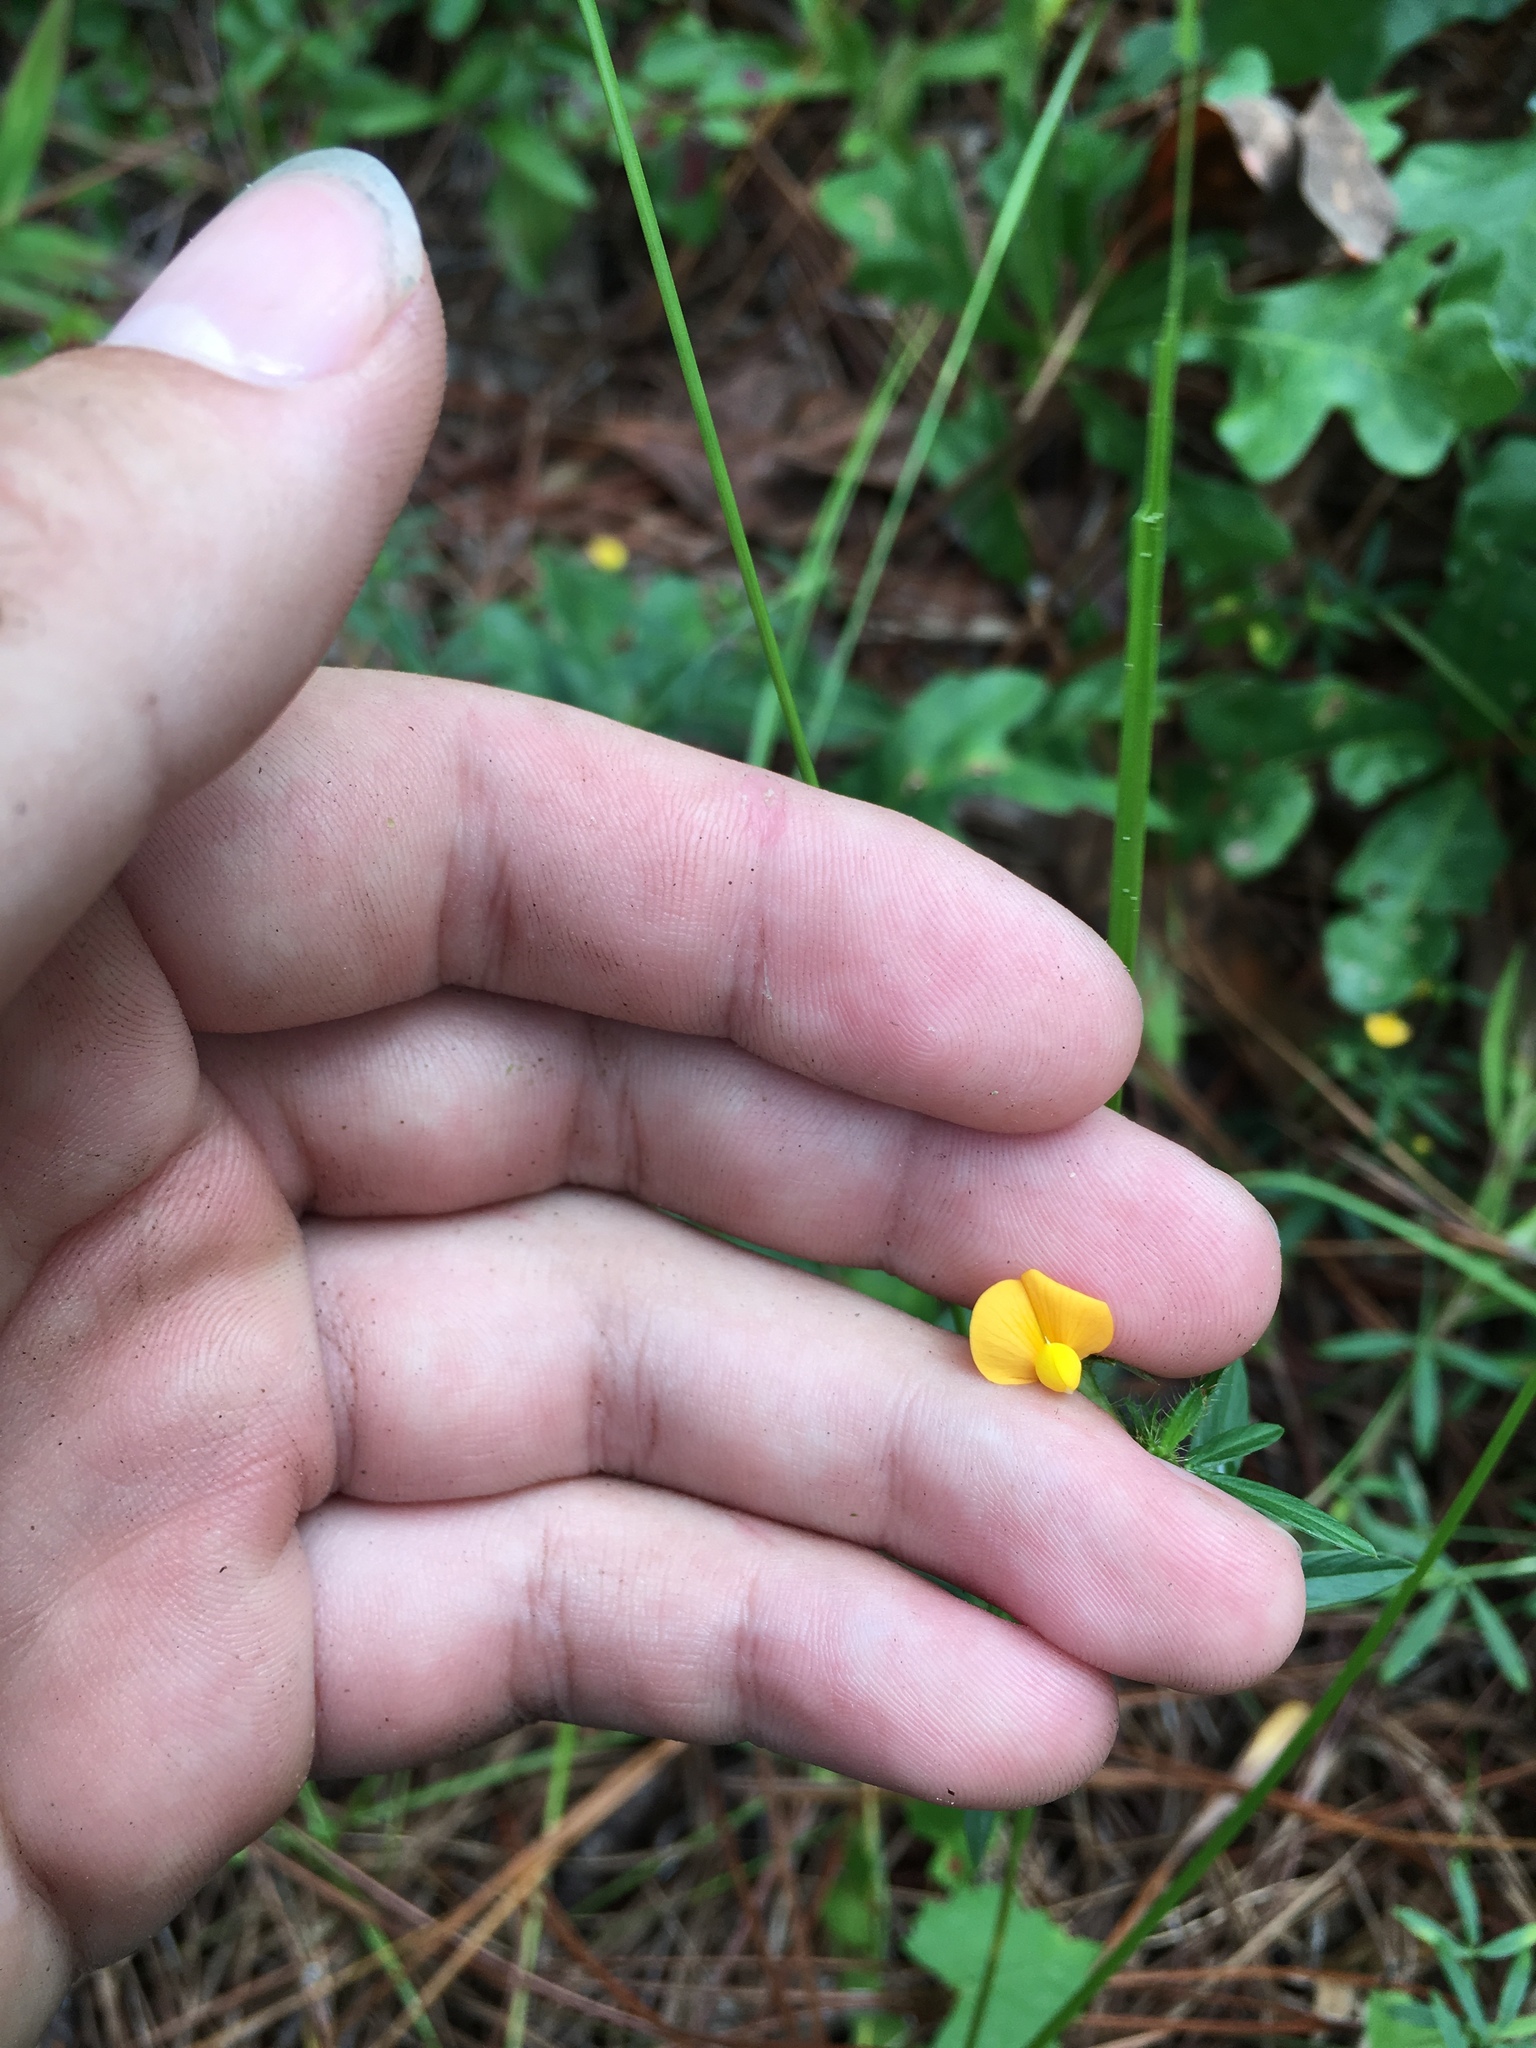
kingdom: Plantae
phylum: Tracheophyta
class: Magnoliopsida
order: Fabales
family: Fabaceae
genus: Stylosanthes
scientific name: Stylosanthes biflora
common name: Two-flower pencil-flower
